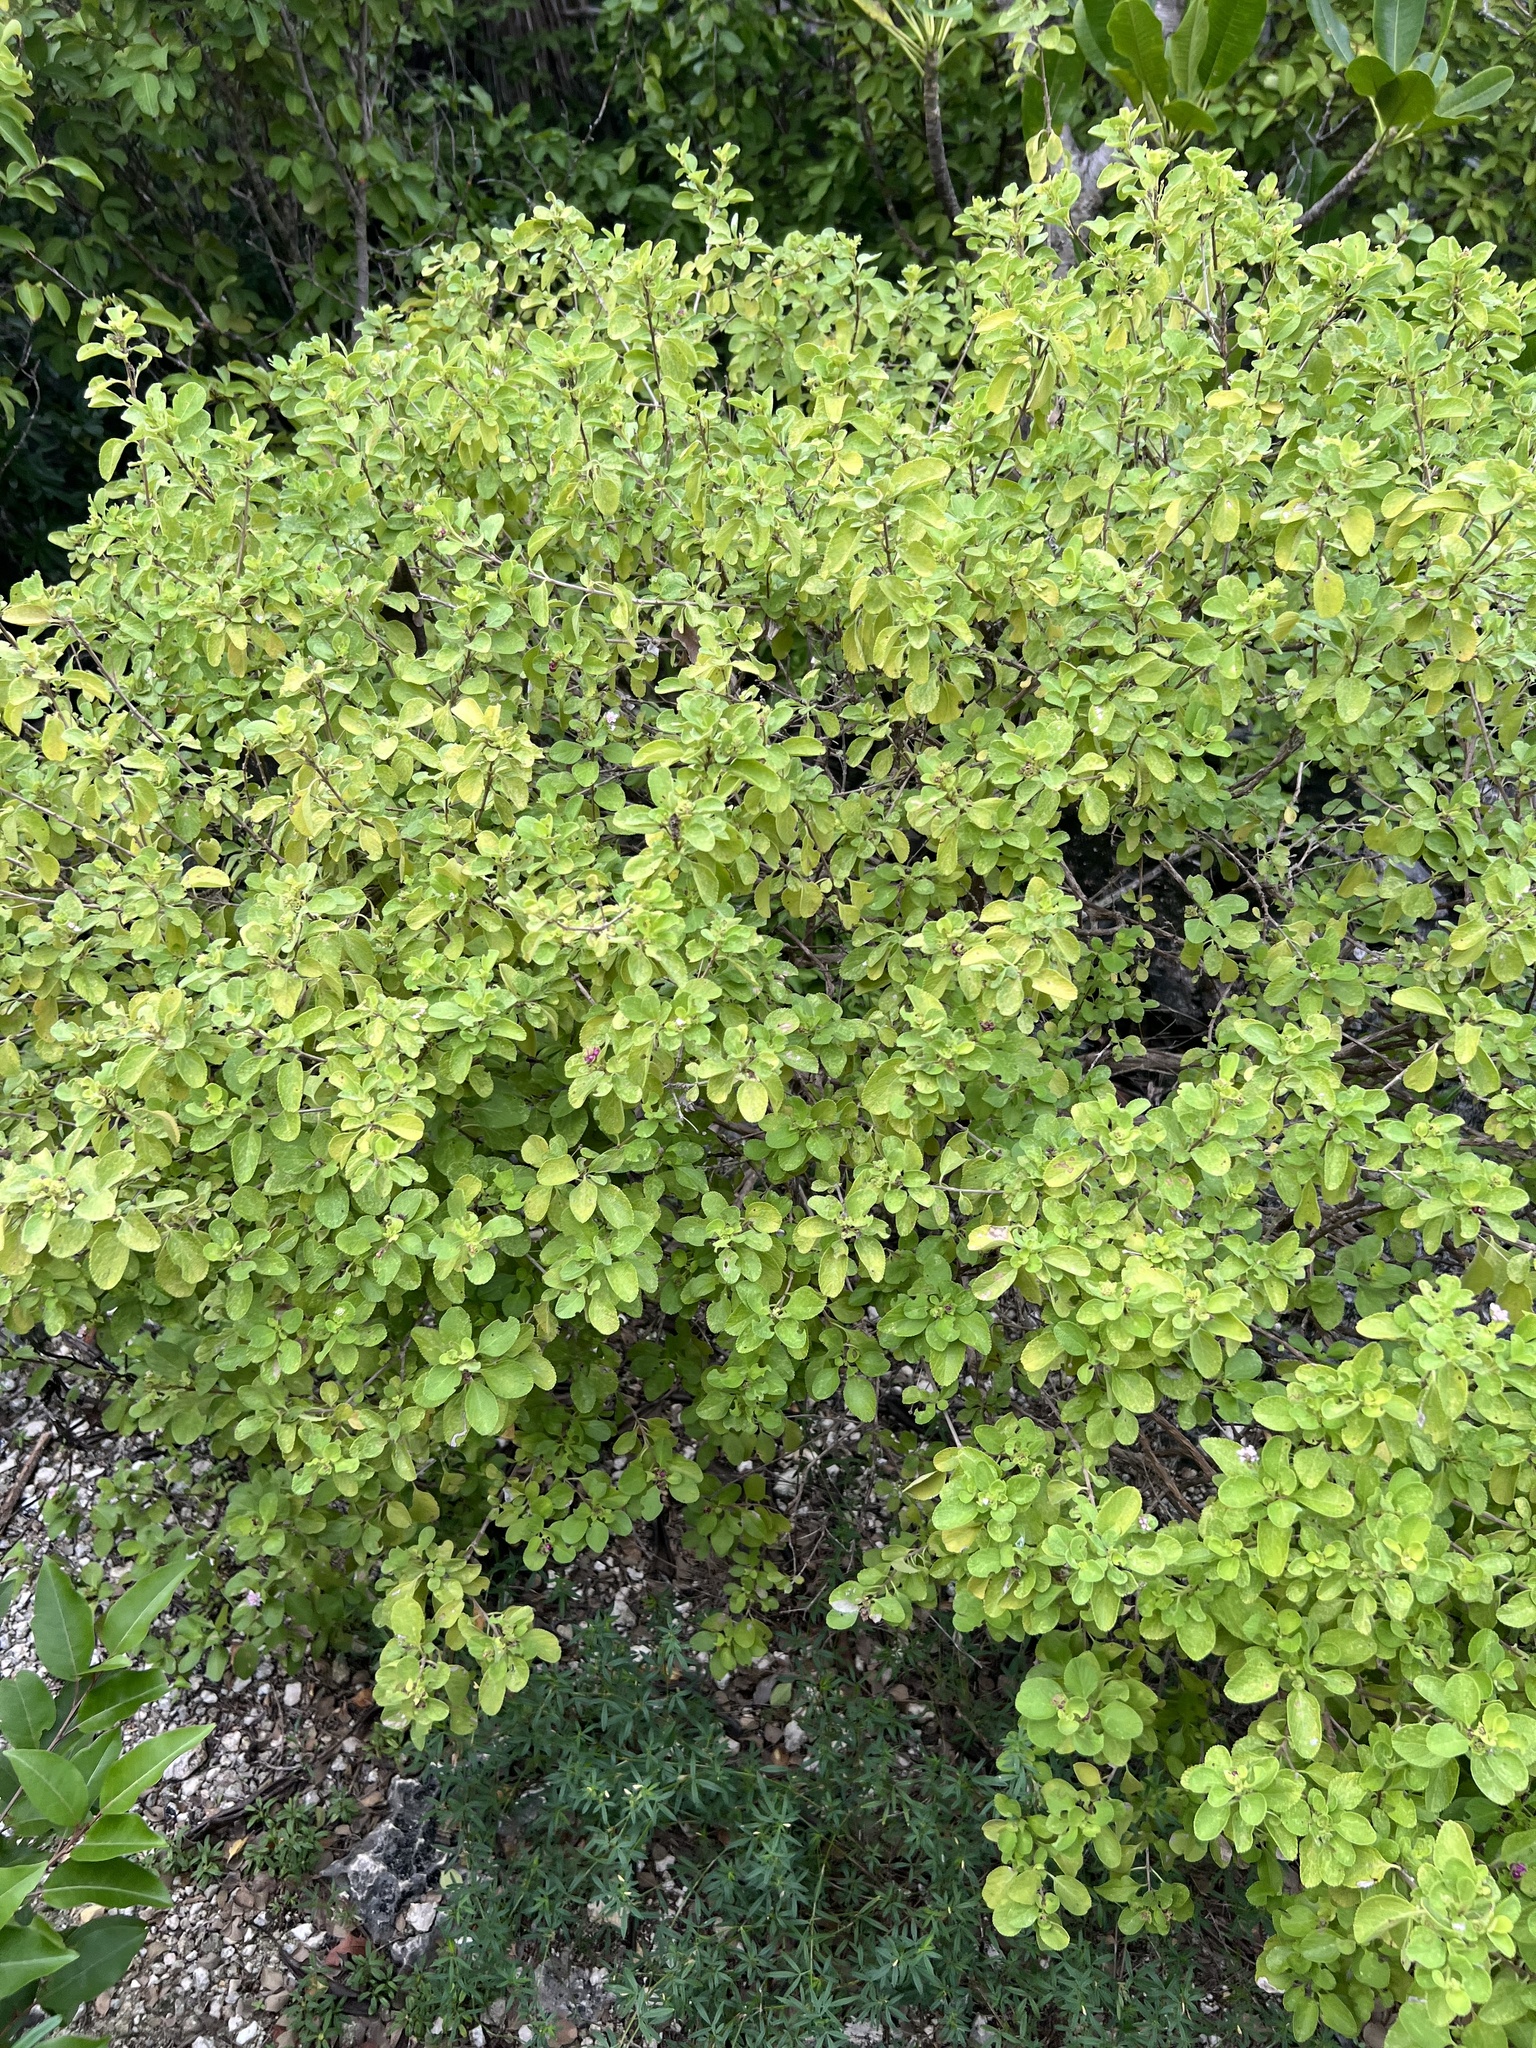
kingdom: Plantae
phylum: Tracheophyta
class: Magnoliopsida
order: Lamiales
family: Verbenaceae
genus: Lantana
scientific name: Lantana involucrata
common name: Black sage
